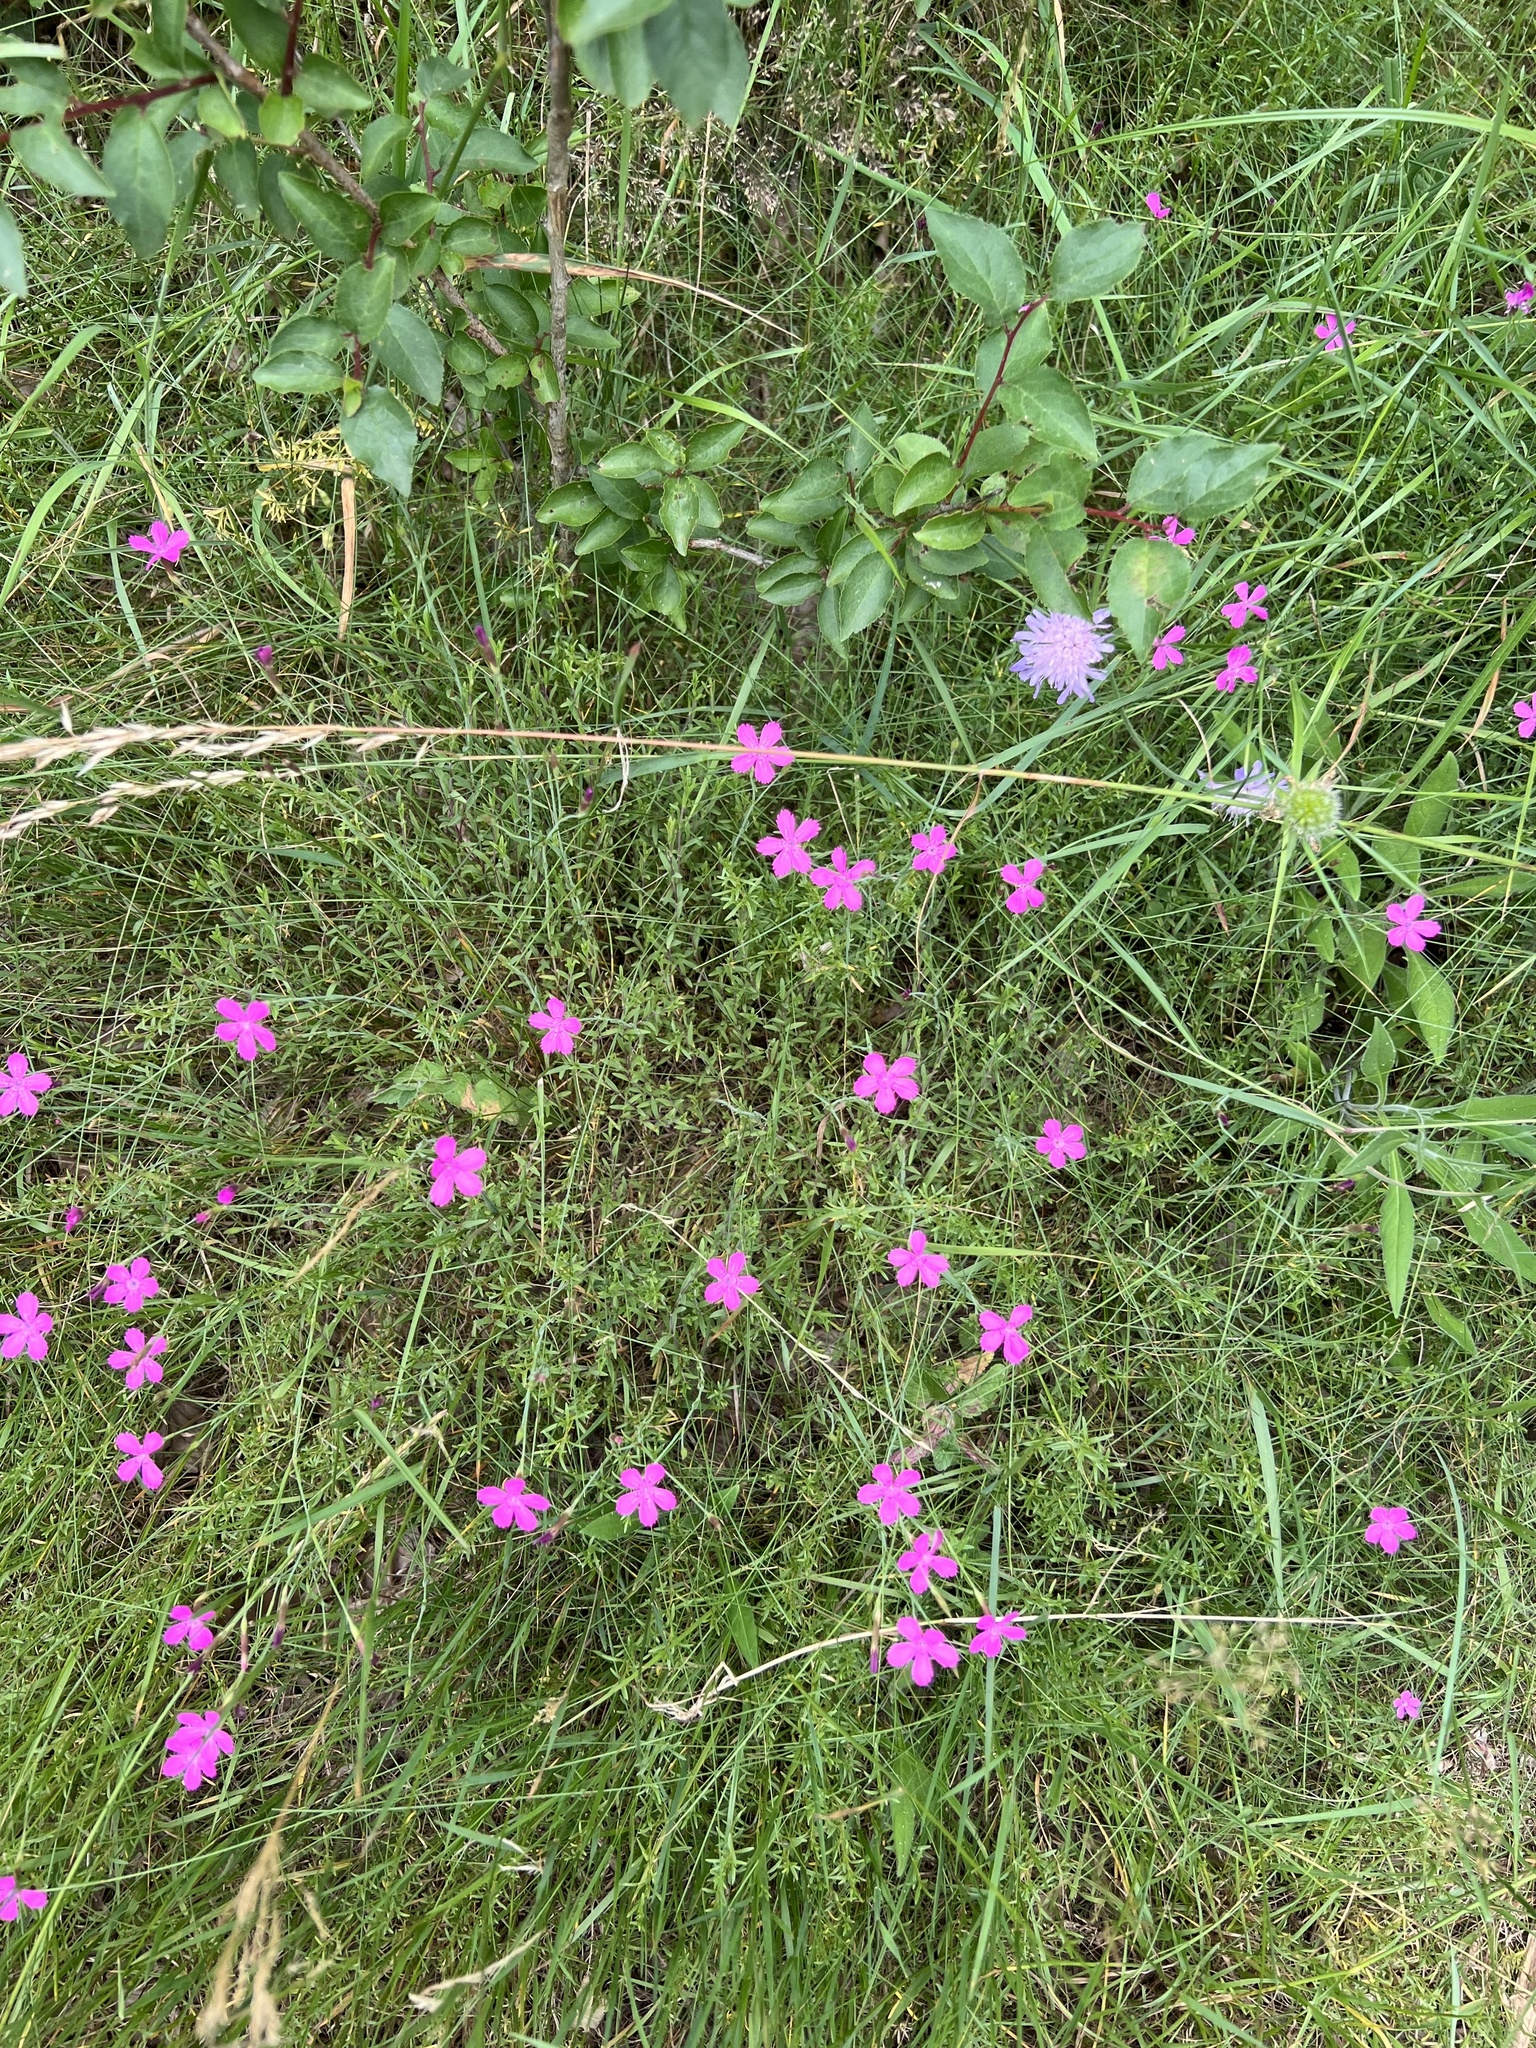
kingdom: Plantae
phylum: Tracheophyta
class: Magnoliopsida
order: Caryophyllales
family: Caryophyllaceae
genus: Dianthus
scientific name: Dianthus deltoides
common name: Maiden pink
